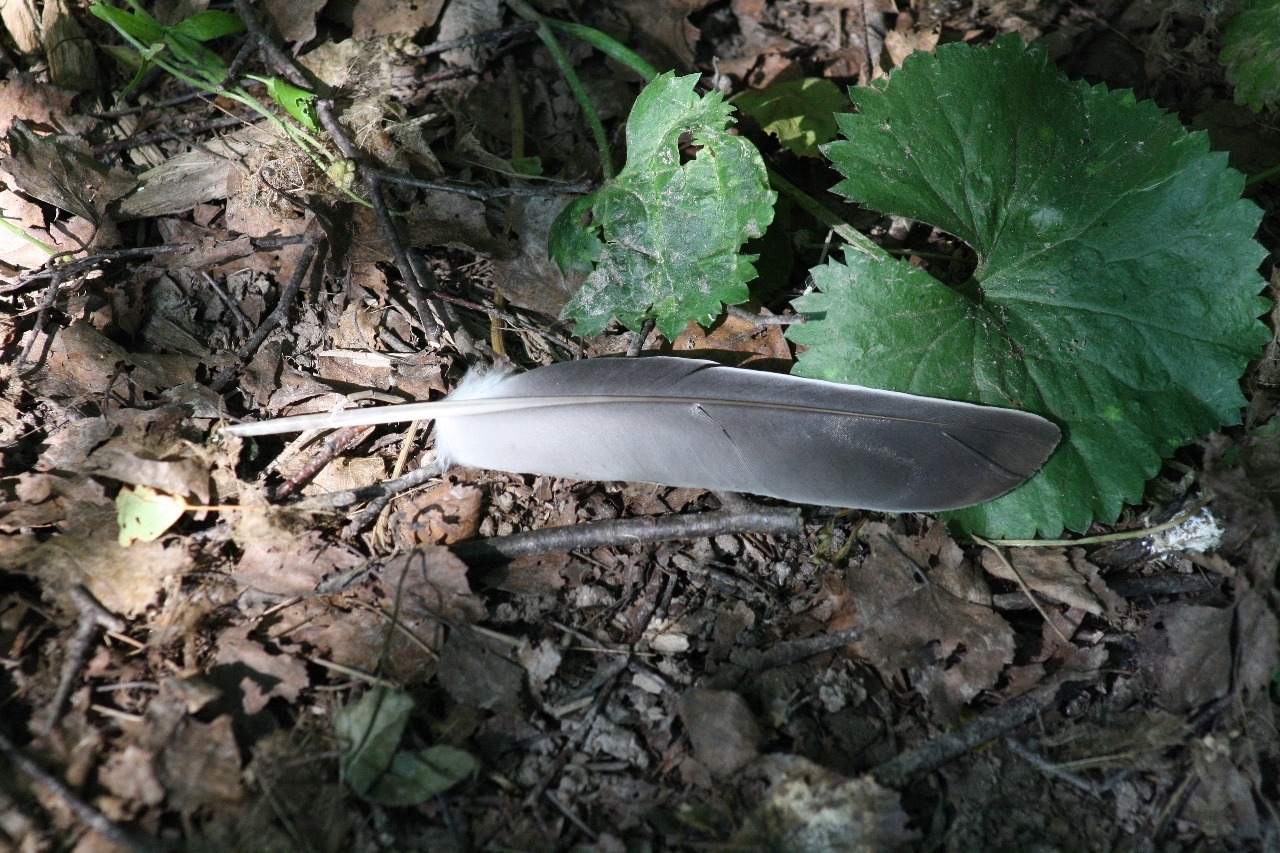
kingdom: Animalia
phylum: Chordata
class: Aves
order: Columbiformes
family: Columbidae
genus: Columba
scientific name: Columba palumbus
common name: Common wood pigeon
